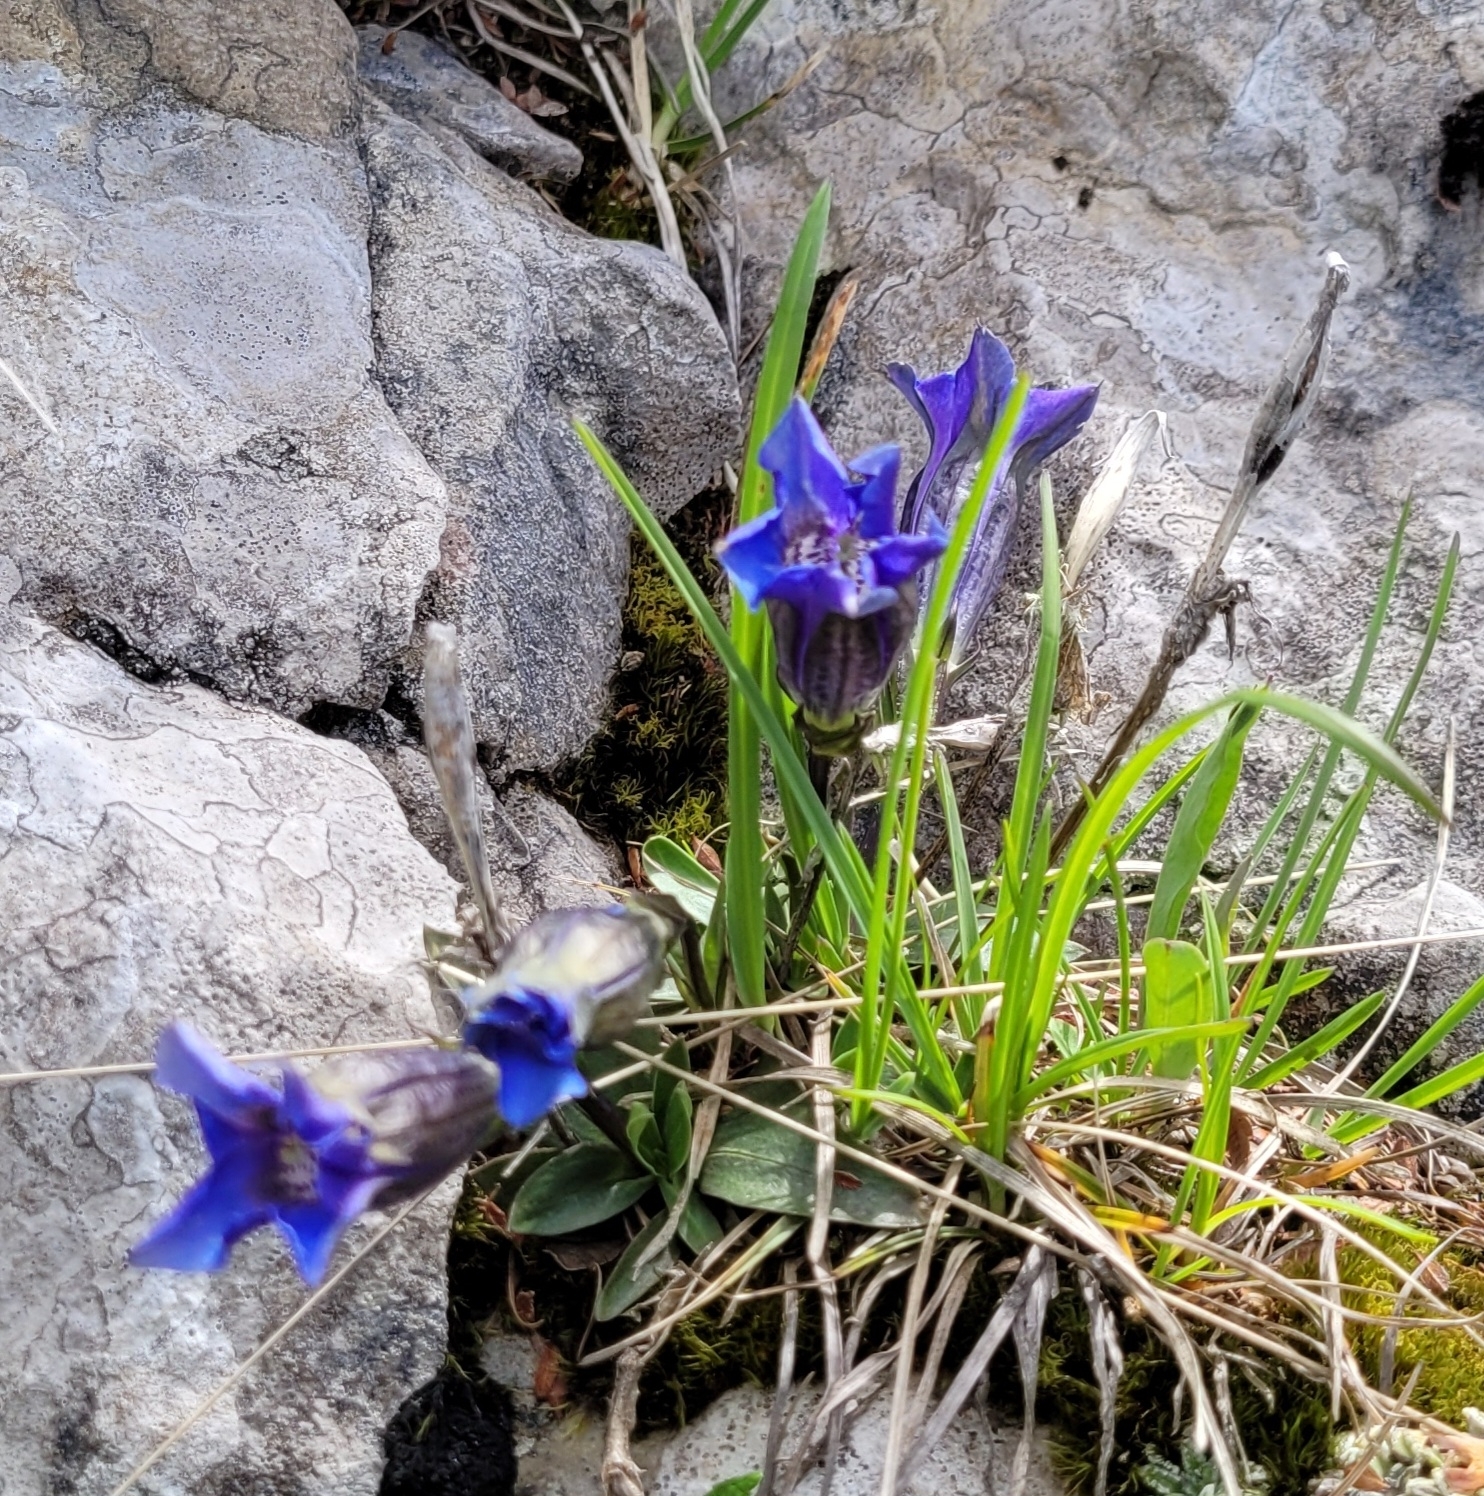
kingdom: Plantae
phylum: Tracheophyta
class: Magnoliopsida
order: Gentianales
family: Gentianaceae
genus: Gentiana
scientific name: Gentiana clusii
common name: Trumpet gentian
